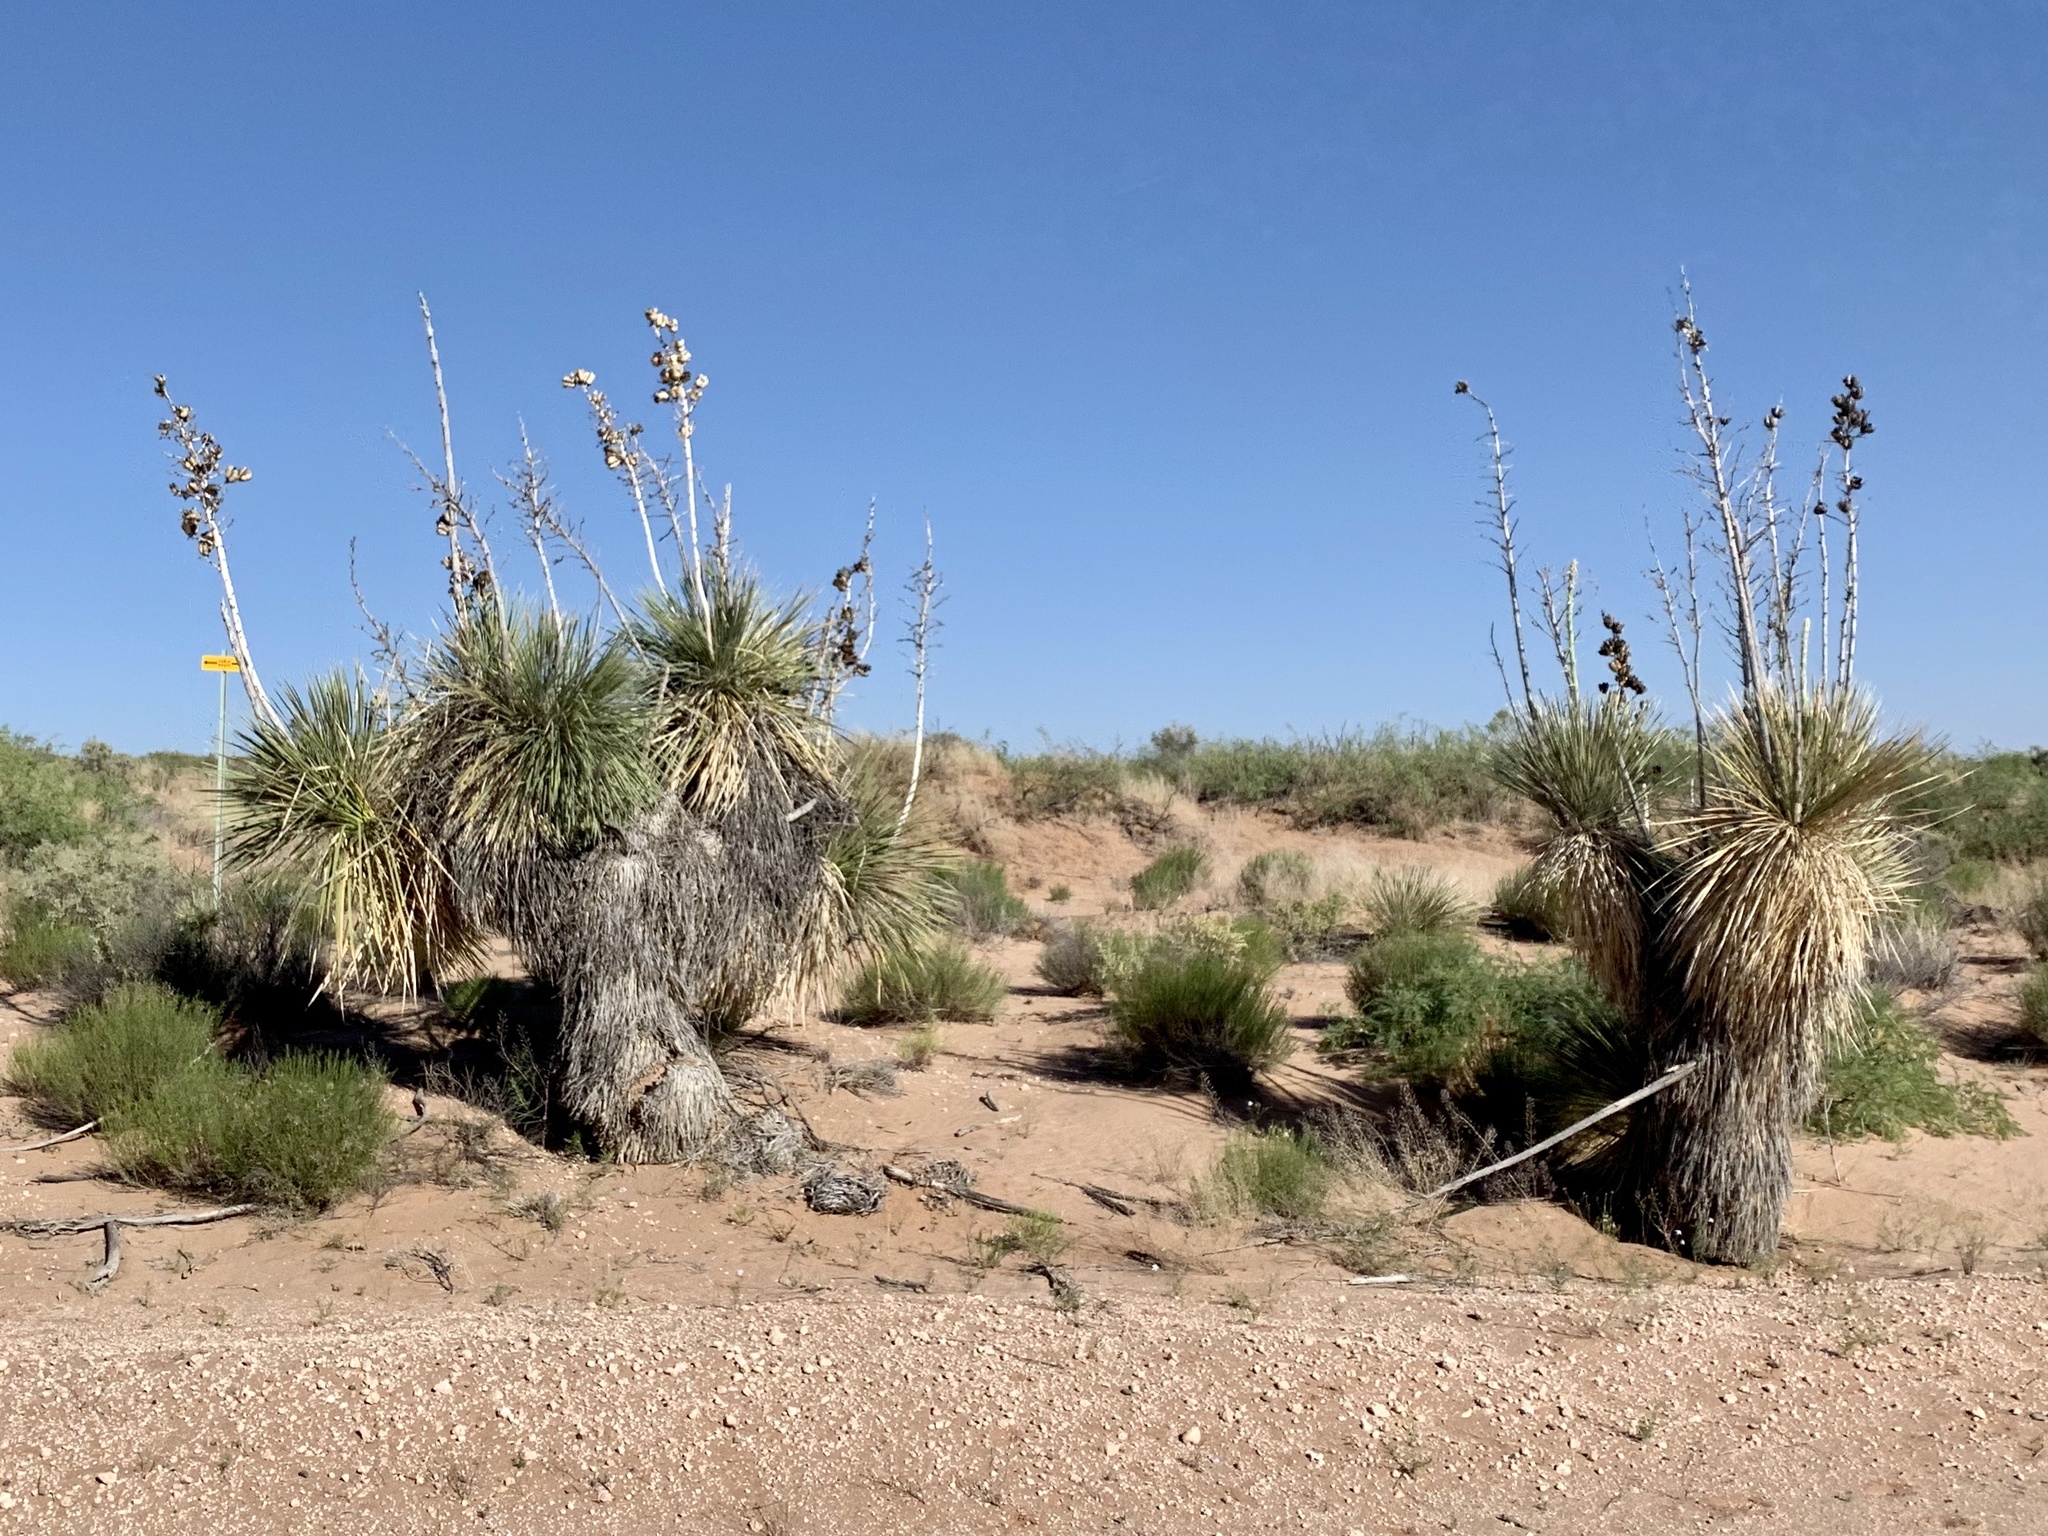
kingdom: Plantae
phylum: Tracheophyta
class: Liliopsida
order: Asparagales
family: Asparagaceae
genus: Yucca
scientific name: Yucca elata
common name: Palmella
